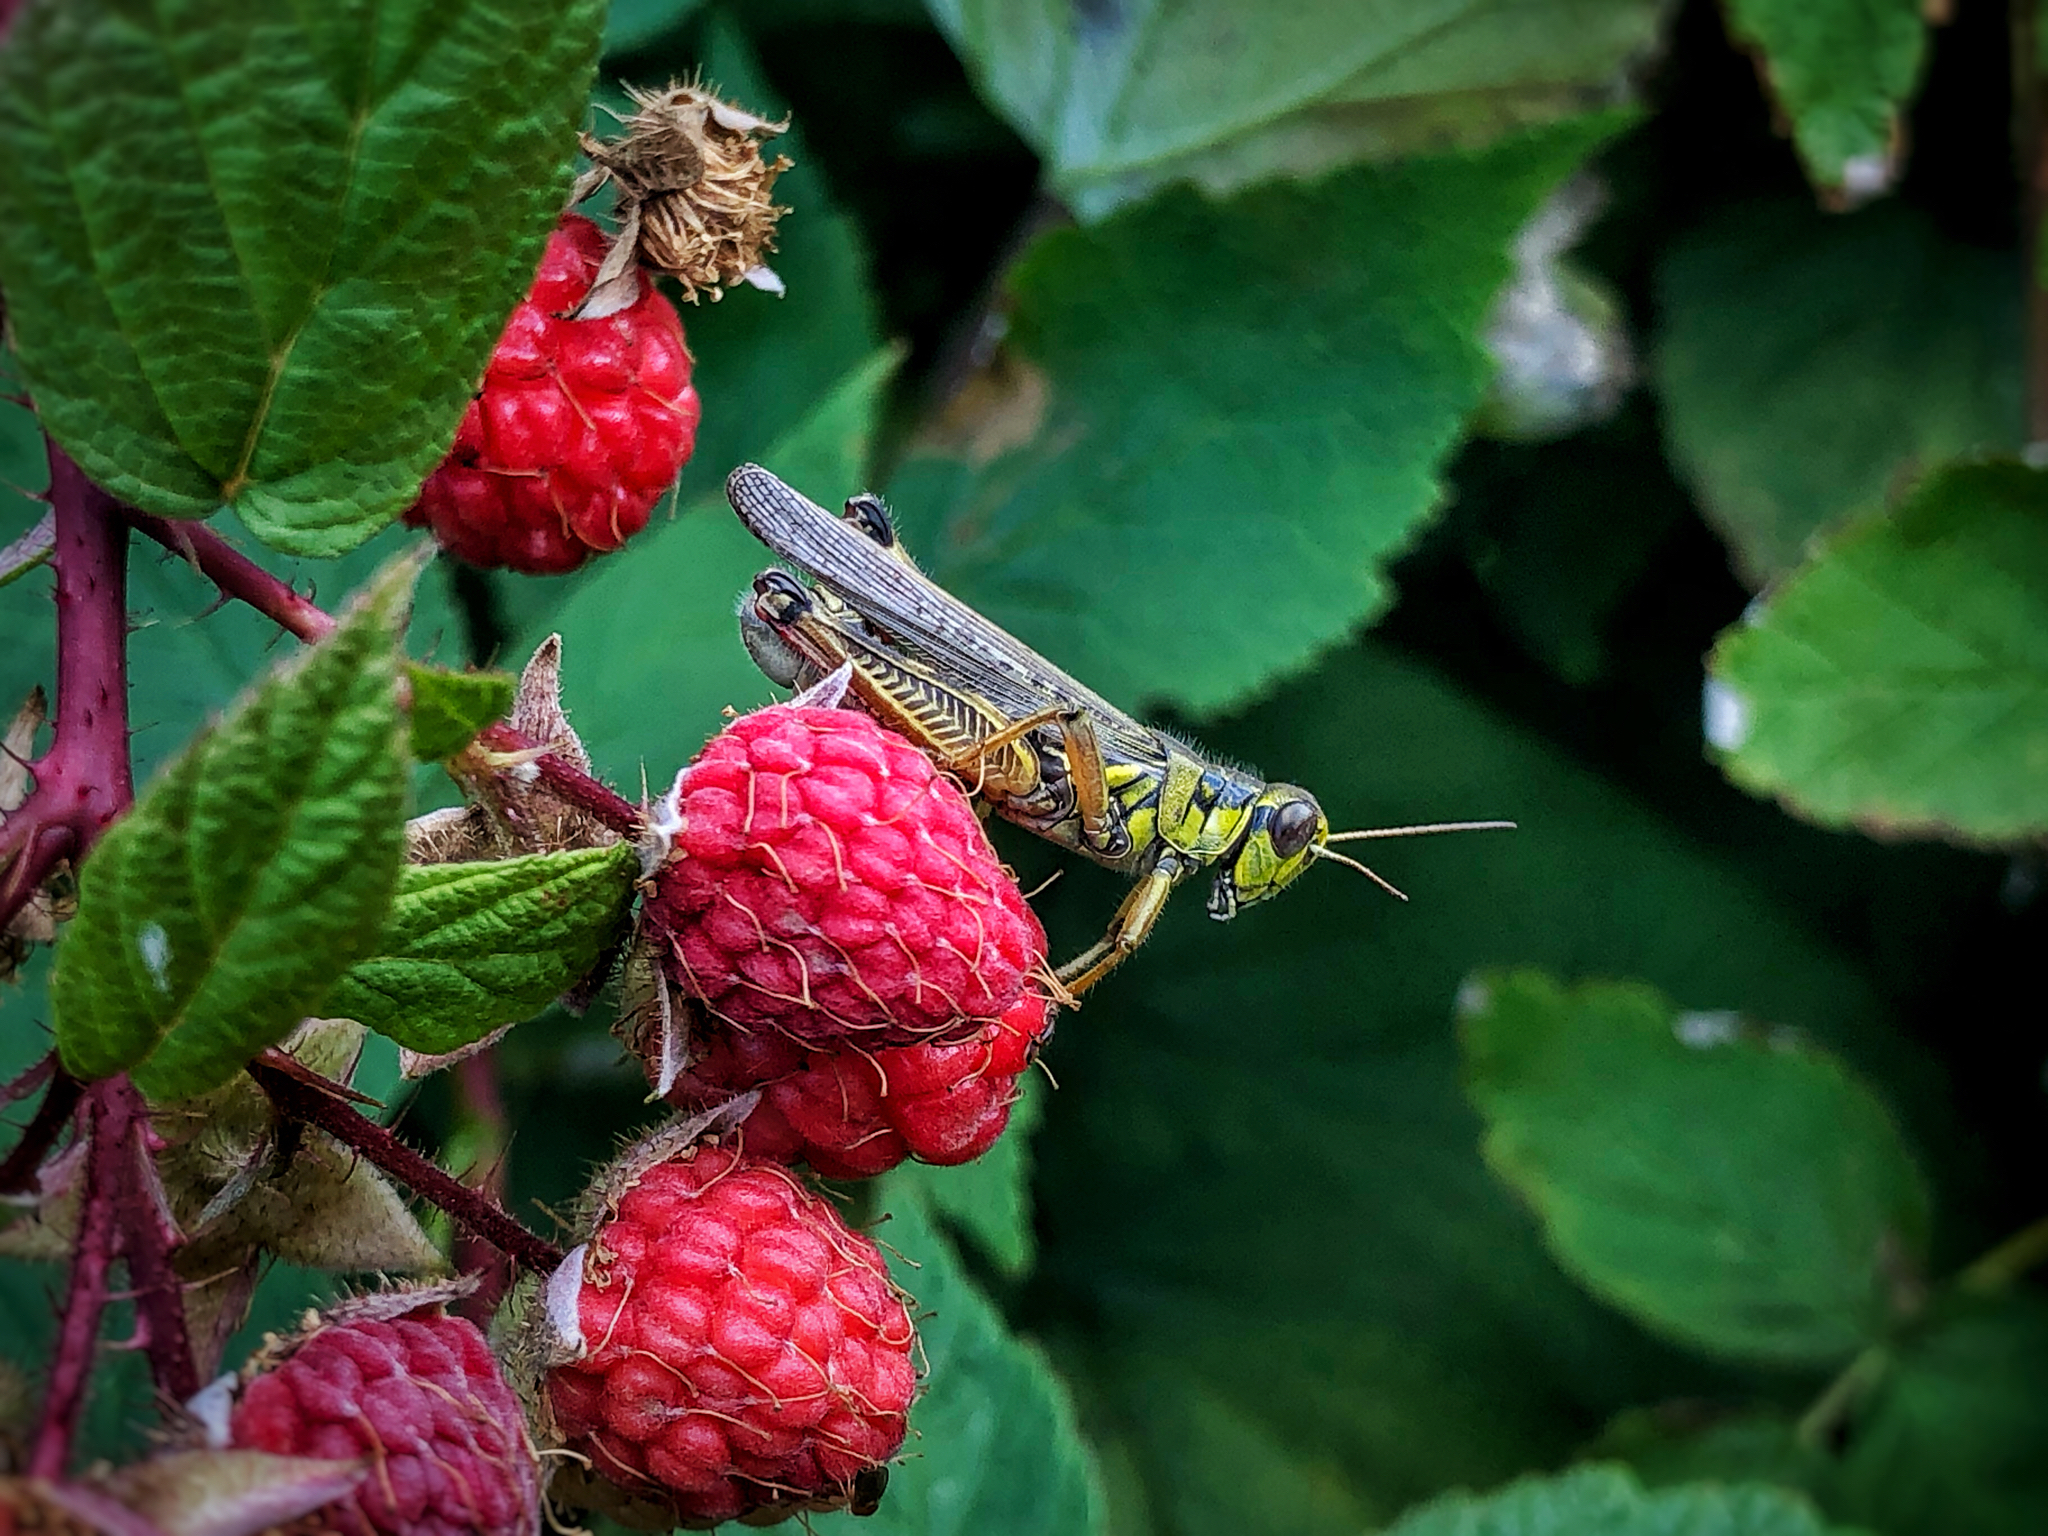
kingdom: Animalia
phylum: Arthropoda
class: Insecta
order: Orthoptera
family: Acrididae
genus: Melanoplus
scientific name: Melanoplus femurrubrum
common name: Red-legged grasshopper
